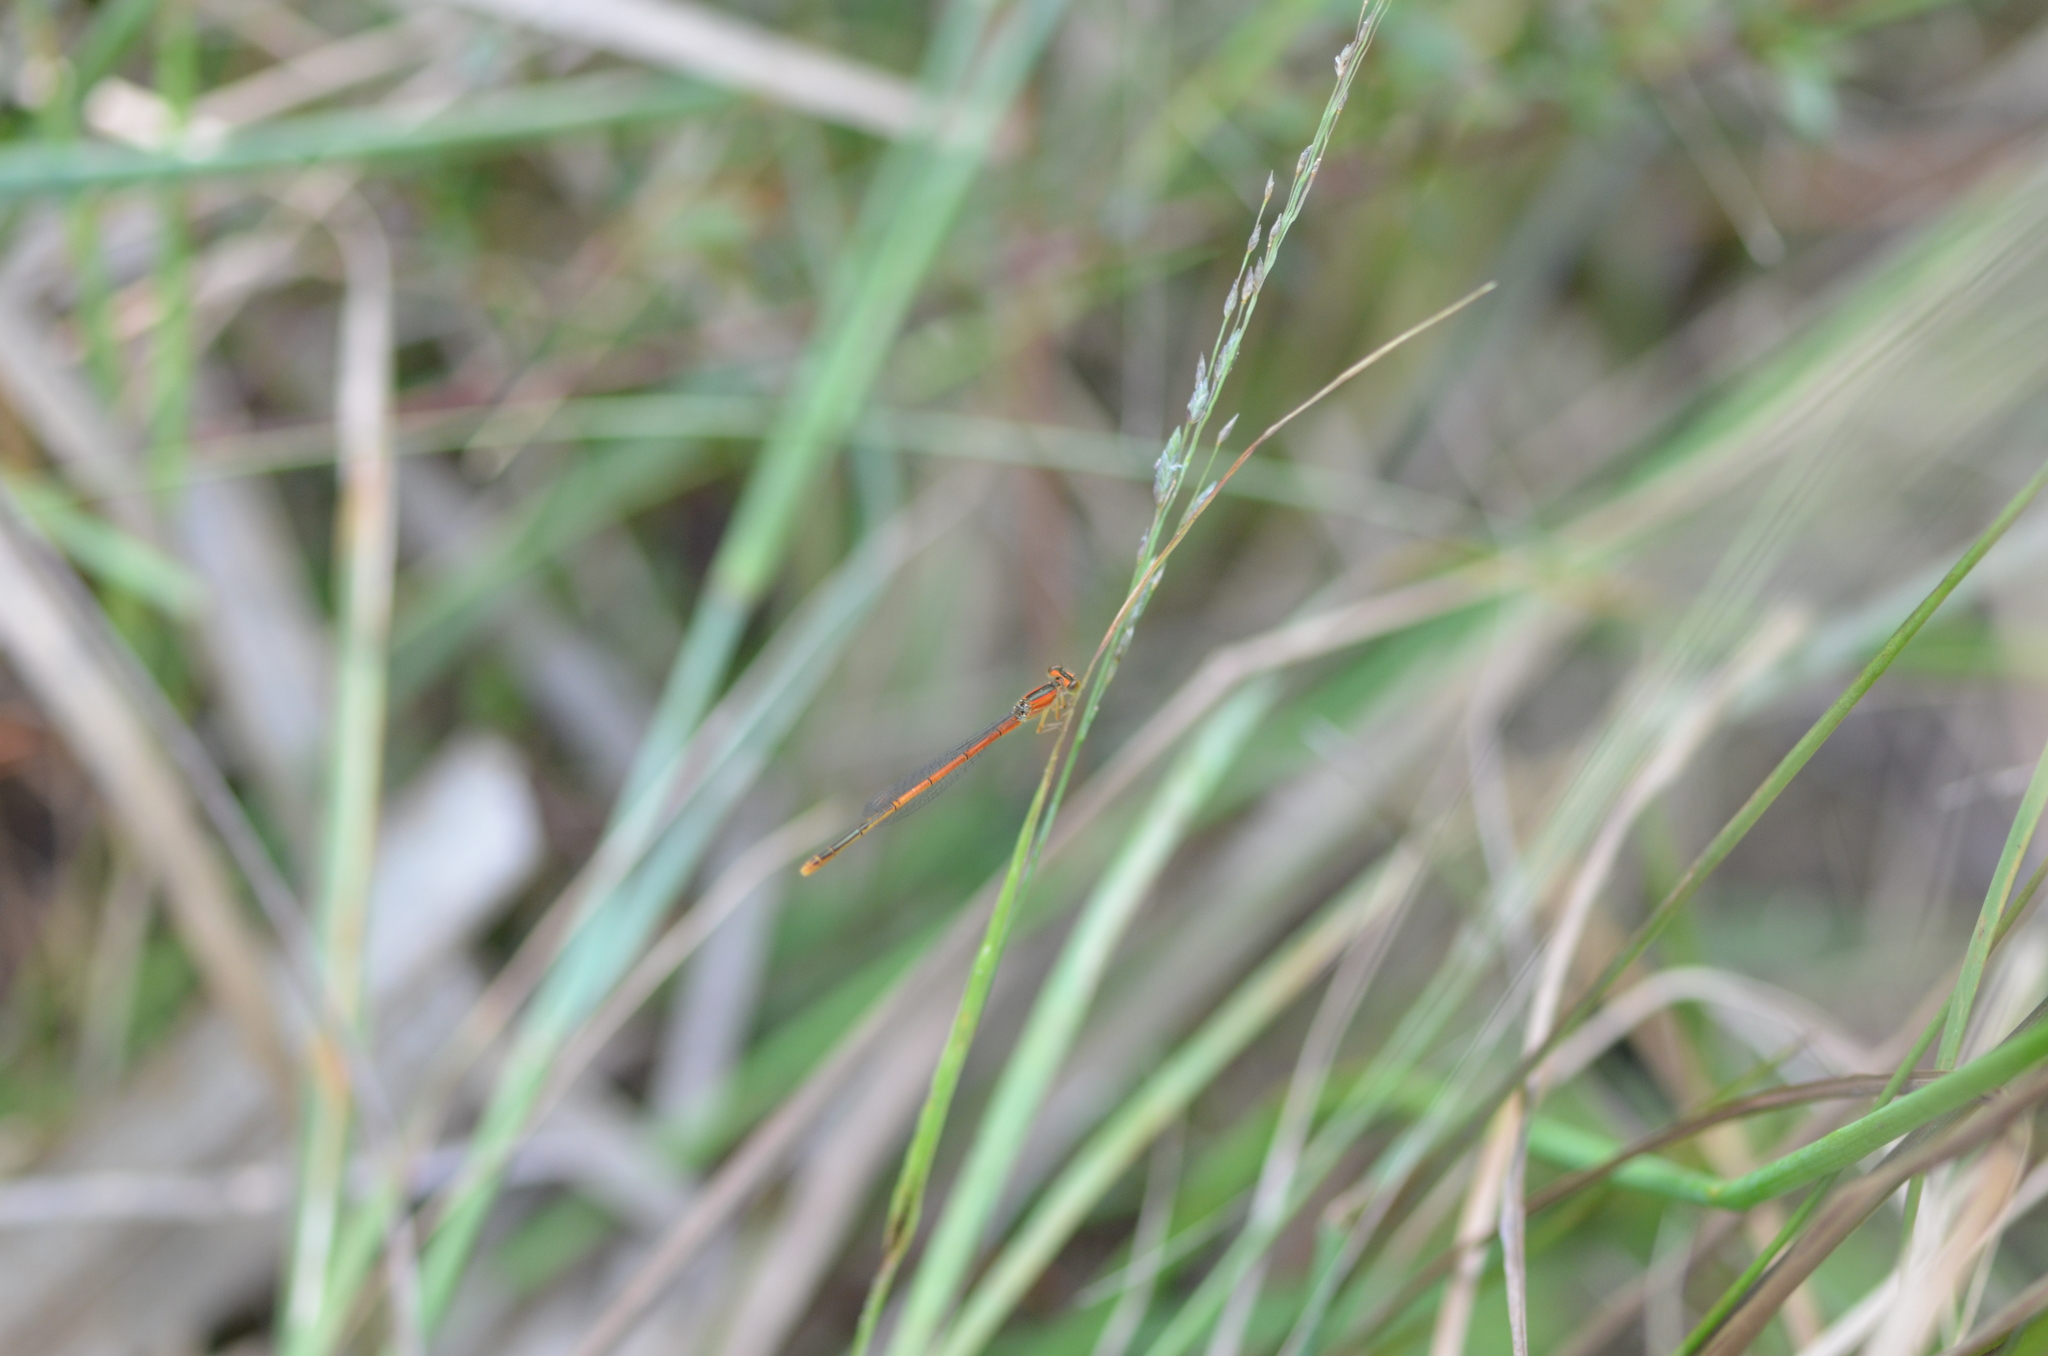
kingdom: Animalia
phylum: Arthropoda
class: Insecta
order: Odonata
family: Coenagrionidae
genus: Ischnura
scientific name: Ischnura hastata
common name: Citrine forktail
